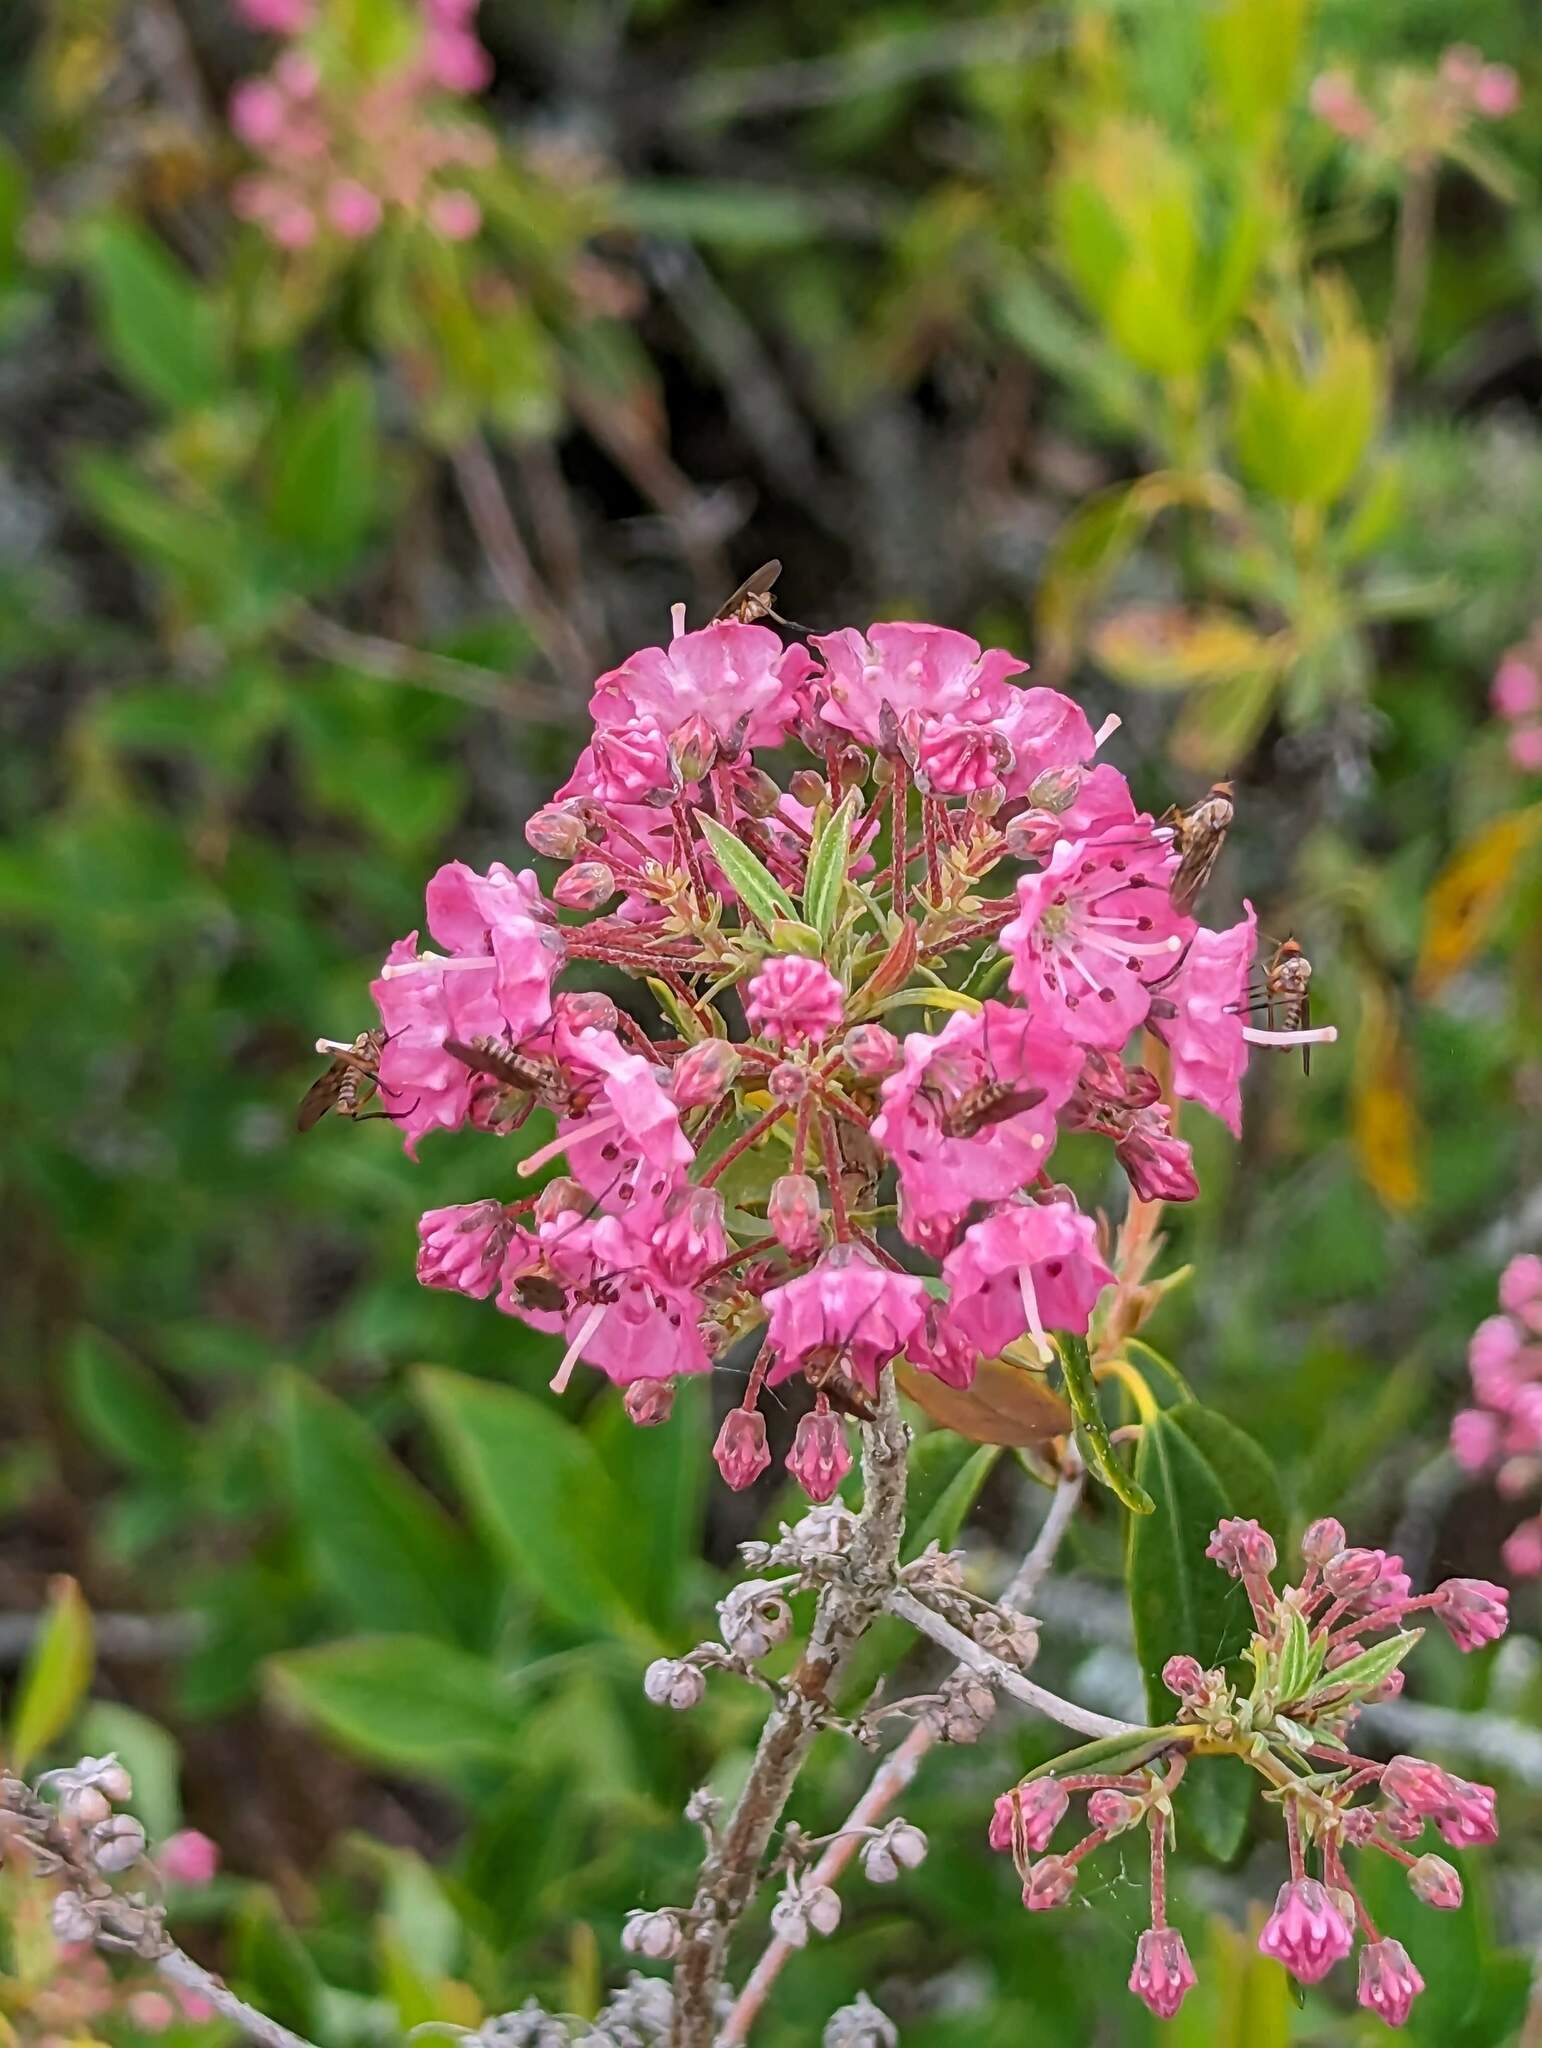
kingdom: Plantae
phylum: Tracheophyta
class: Magnoliopsida
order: Ericales
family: Ericaceae
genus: Kalmia
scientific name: Kalmia angustifolia
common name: Sheep-laurel
